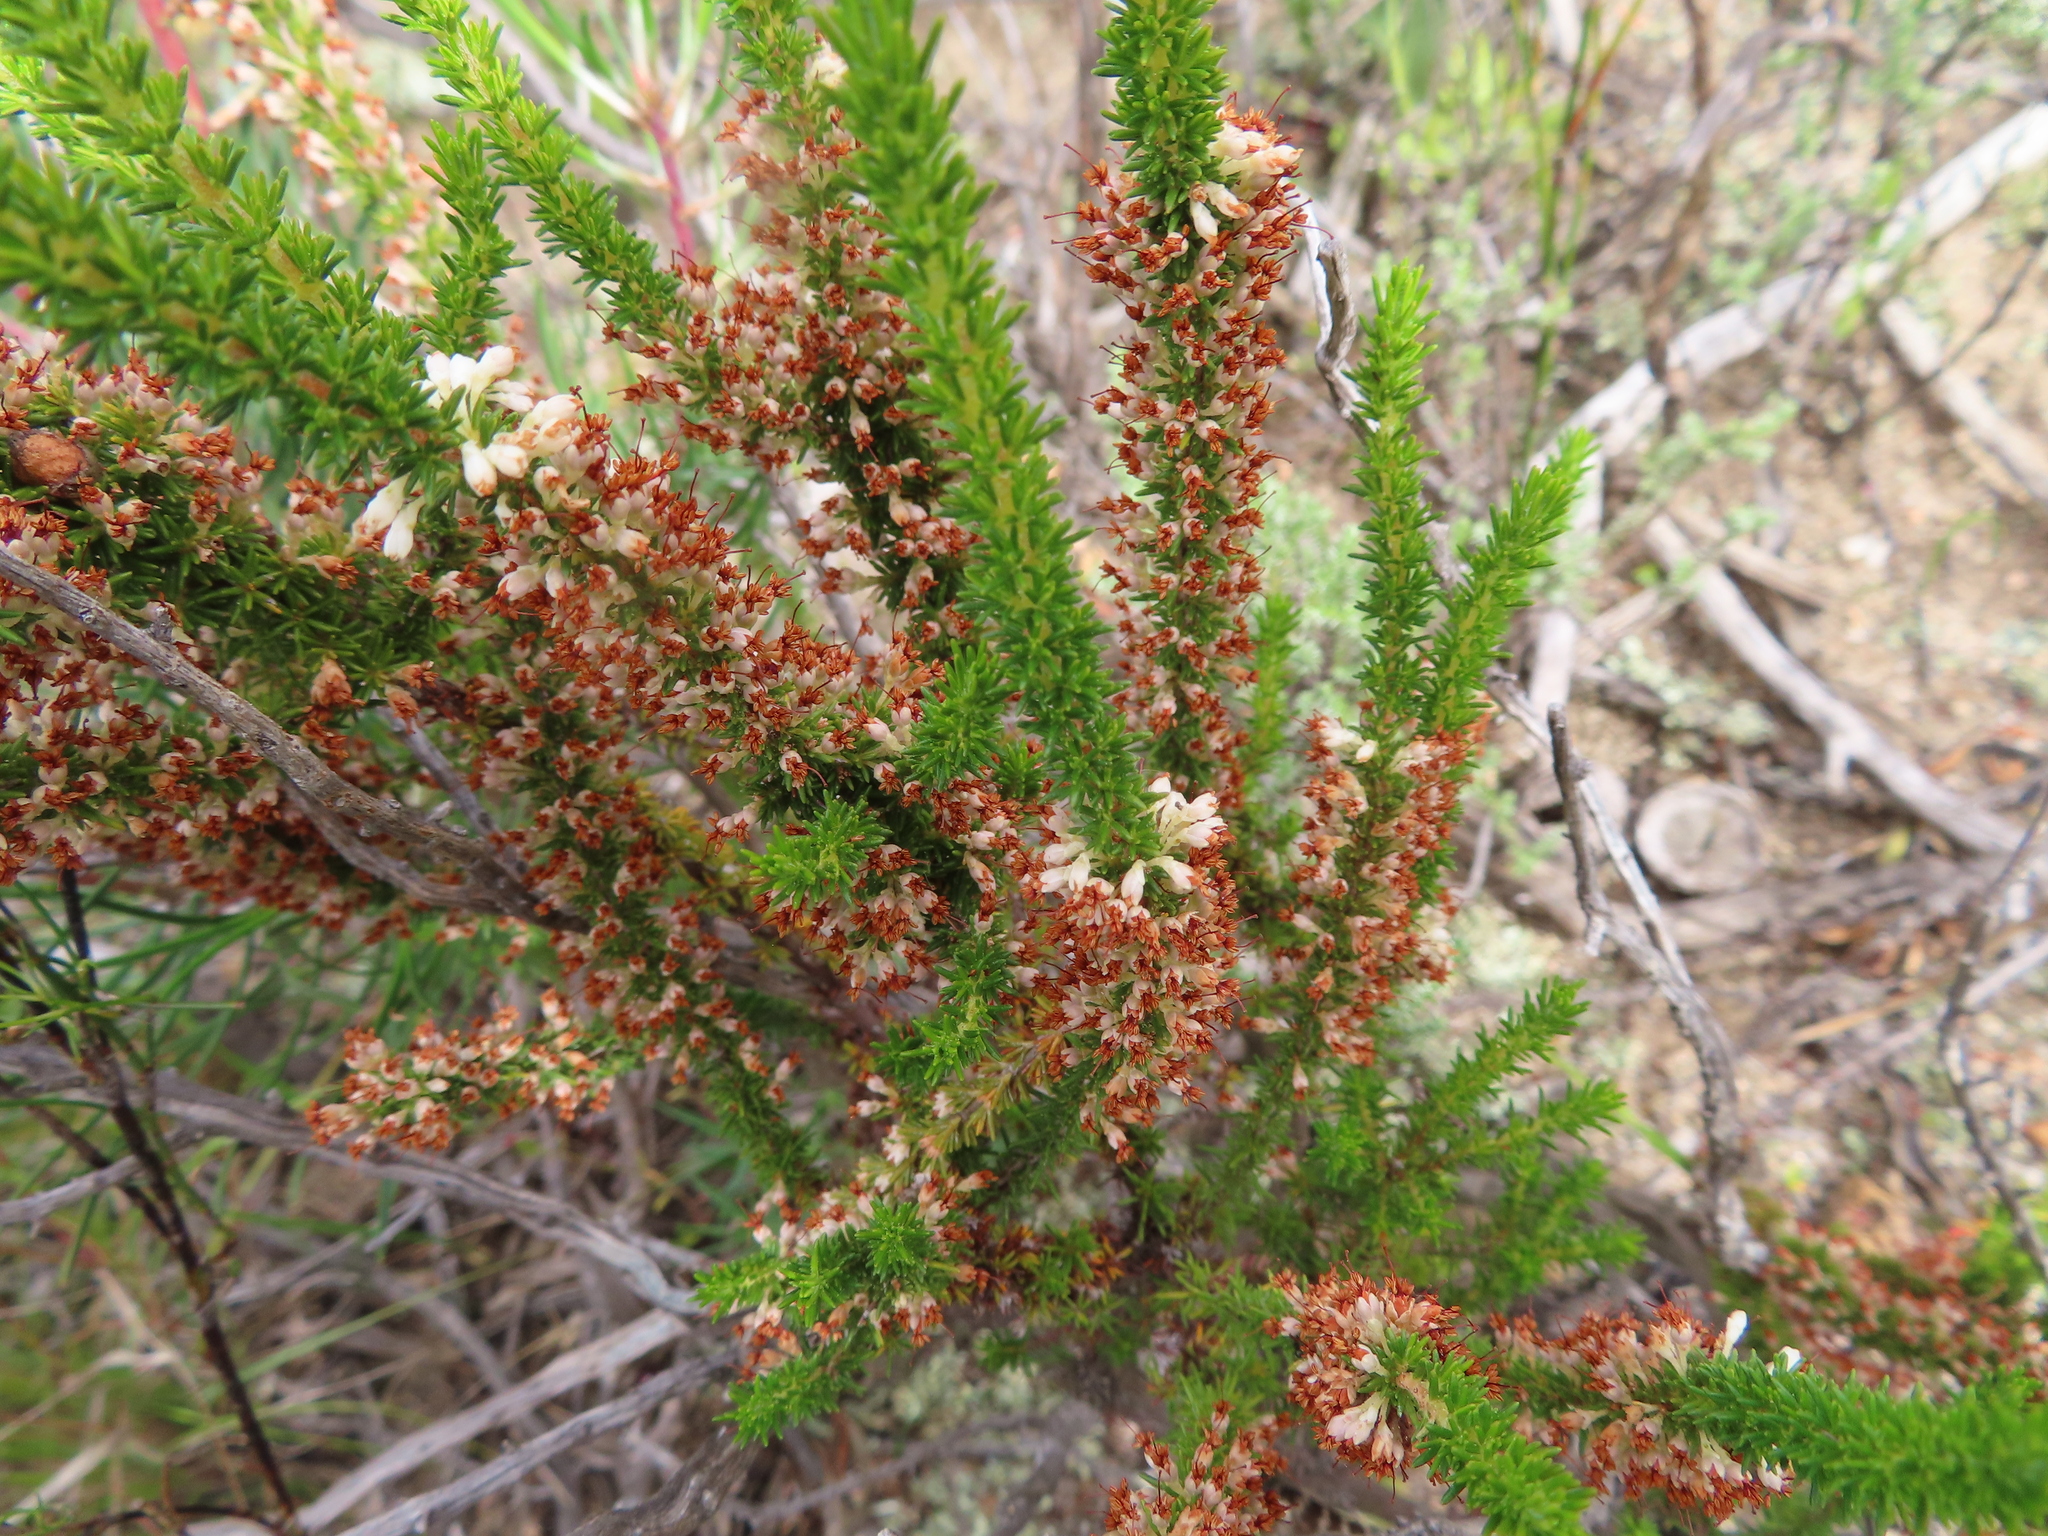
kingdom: Plantae
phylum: Tracheophyta
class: Magnoliopsida
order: Ericales
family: Ericaceae
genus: Erica
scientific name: Erica imbricata
